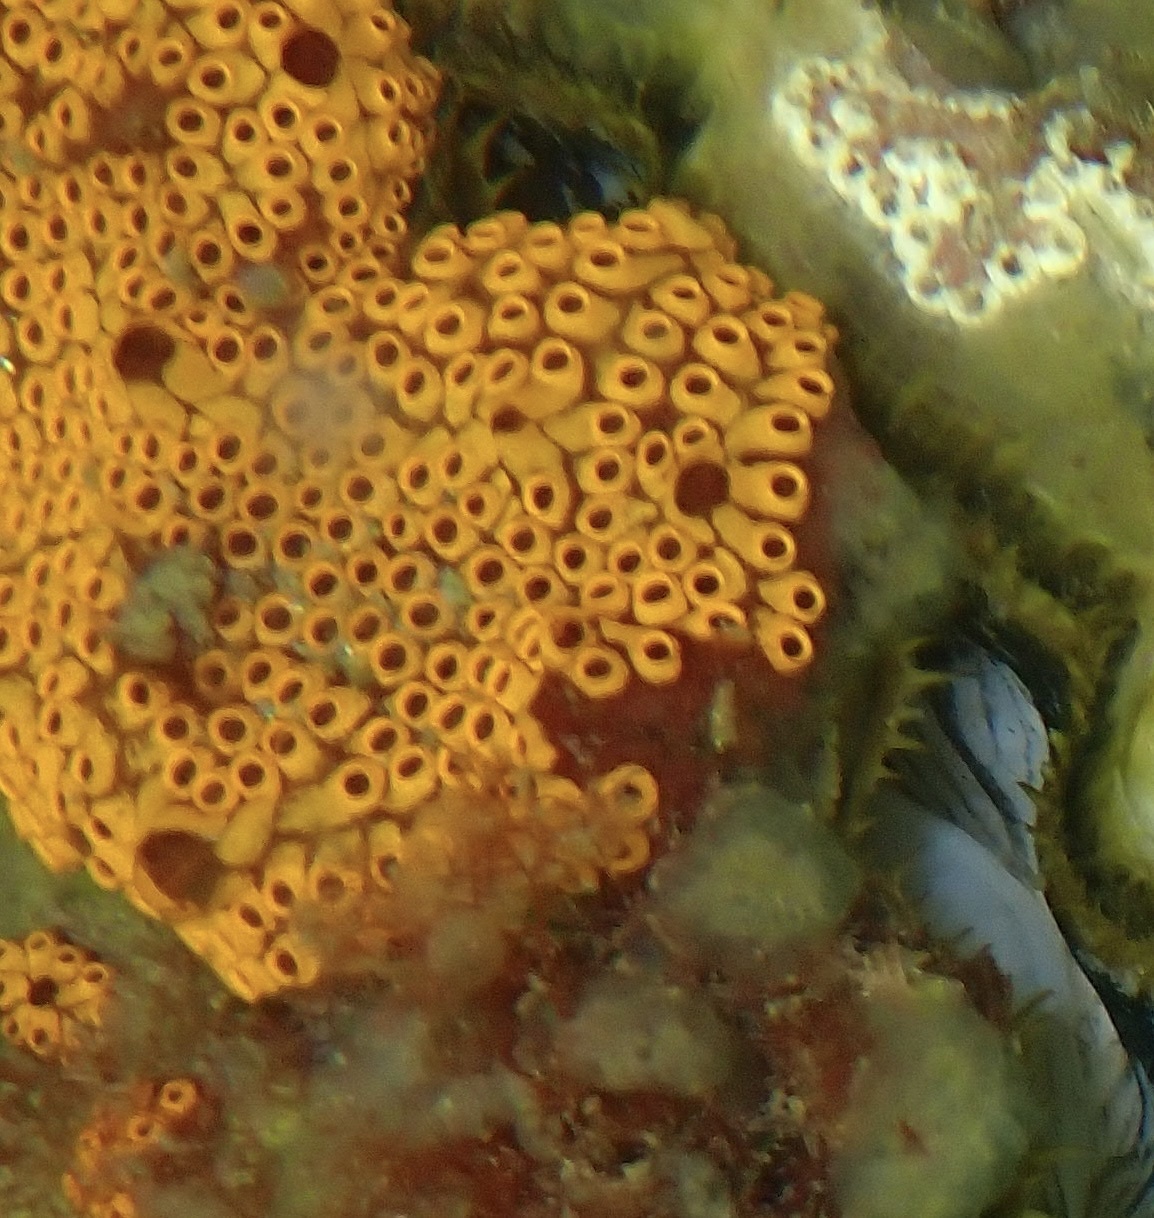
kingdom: Animalia
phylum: Chordata
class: Ascidiacea
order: Stolidobranchia
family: Styelidae
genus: Botrylloides
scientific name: Botrylloides diegensis
